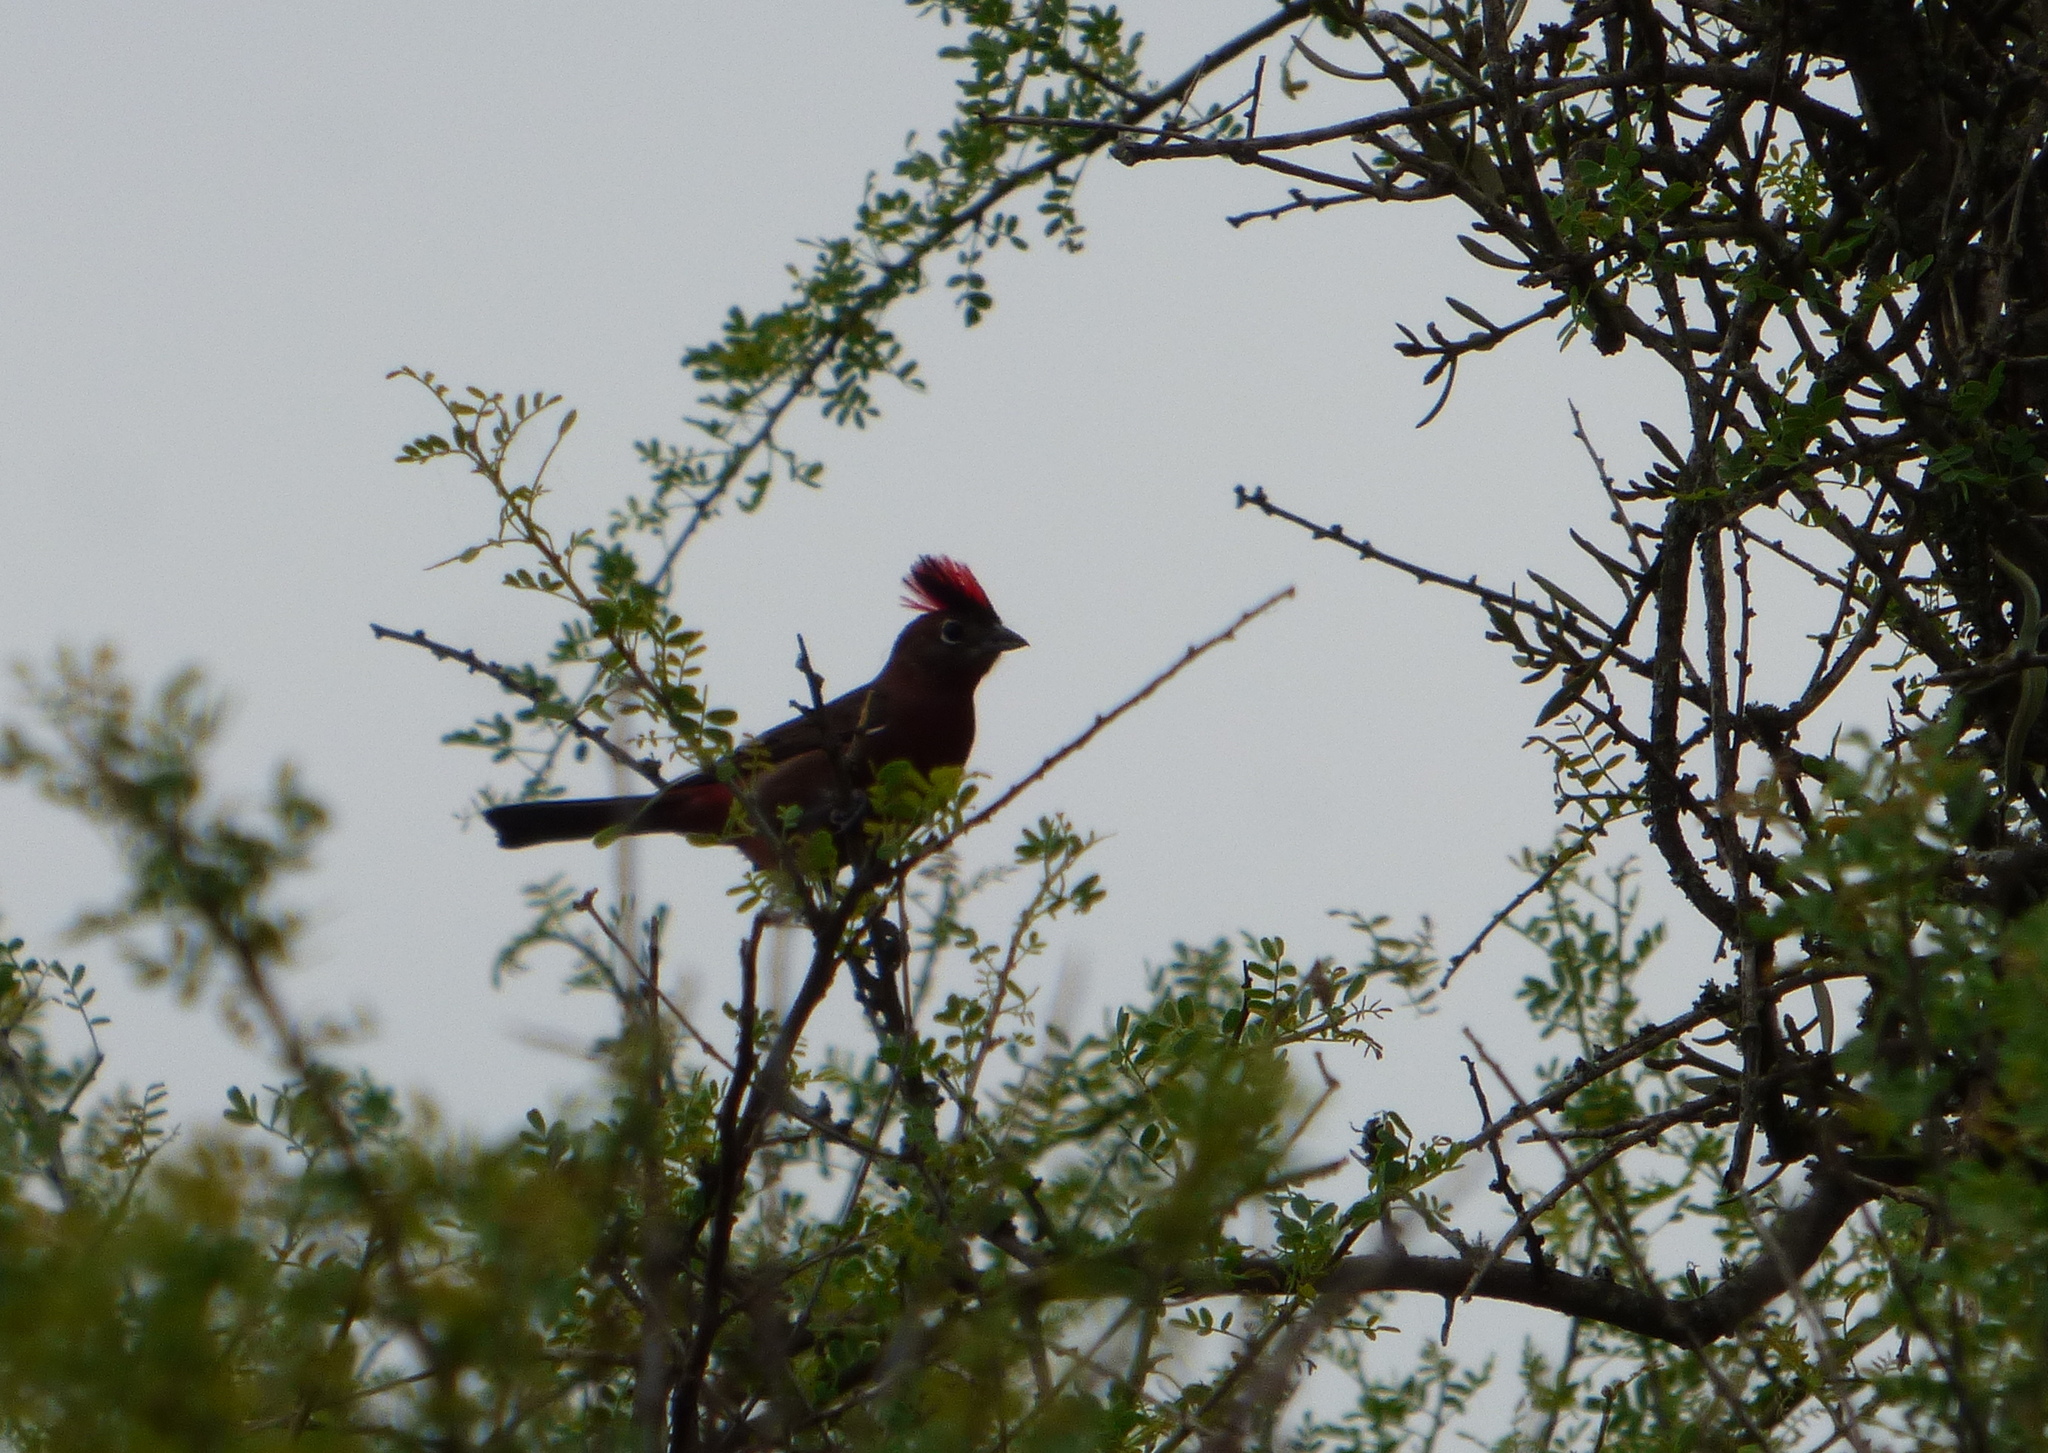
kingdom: Animalia
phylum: Chordata
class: Aves
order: Passeriformes
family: Thraupidae
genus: Coryphospingus
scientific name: Coryphospingus cucullatus
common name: Red pileated finch
